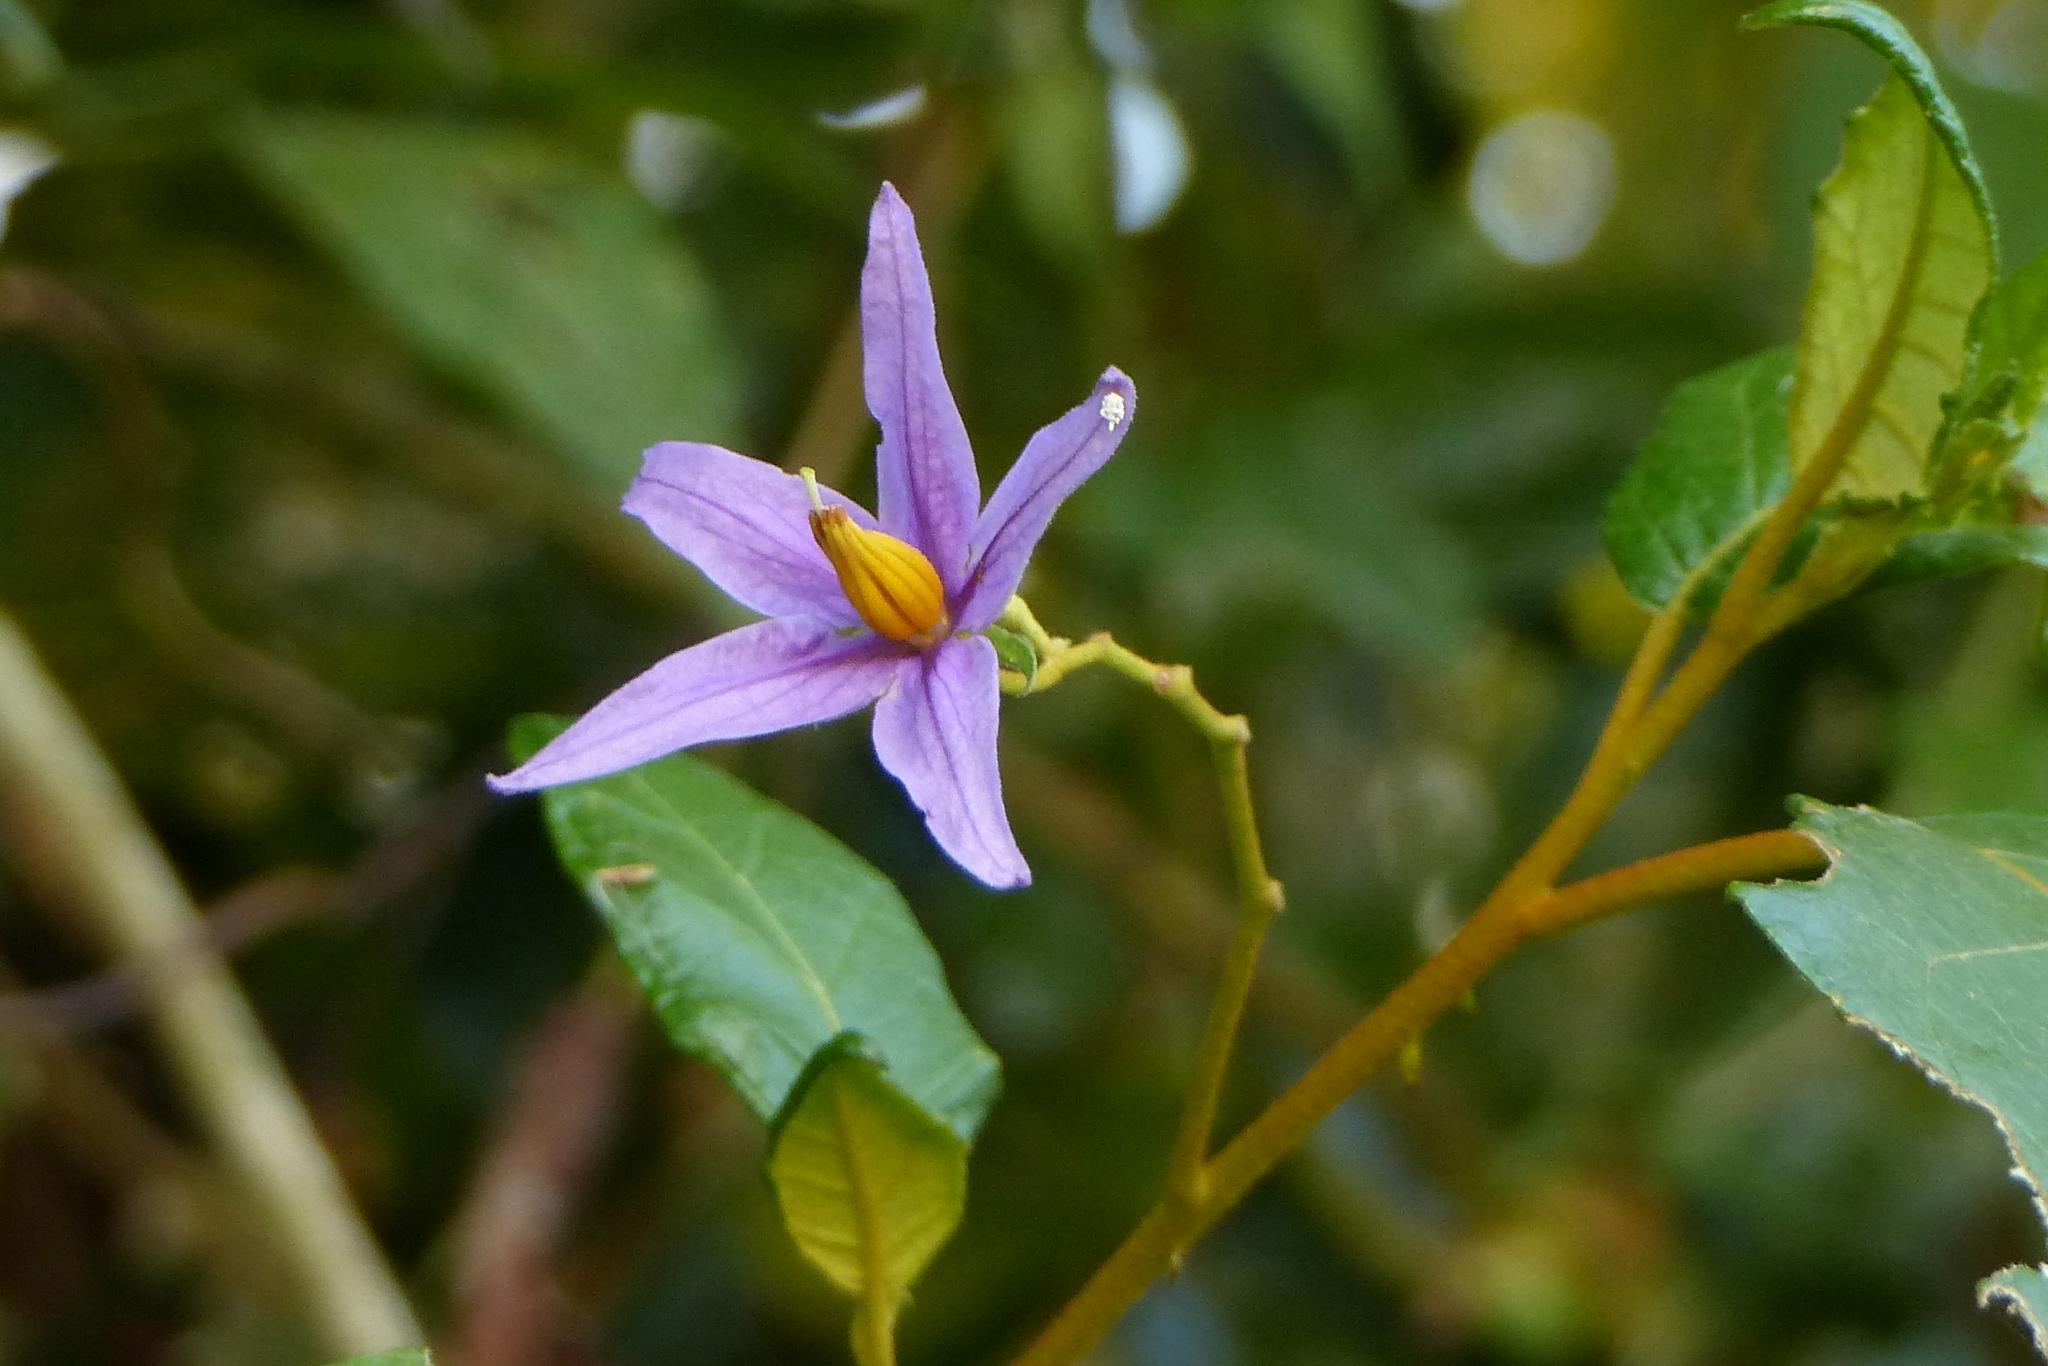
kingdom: Plantae
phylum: Tracheophyta
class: Magnoliopsida
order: Solanales
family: Solanaceae
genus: Solanum
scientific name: Solanum paludosum
